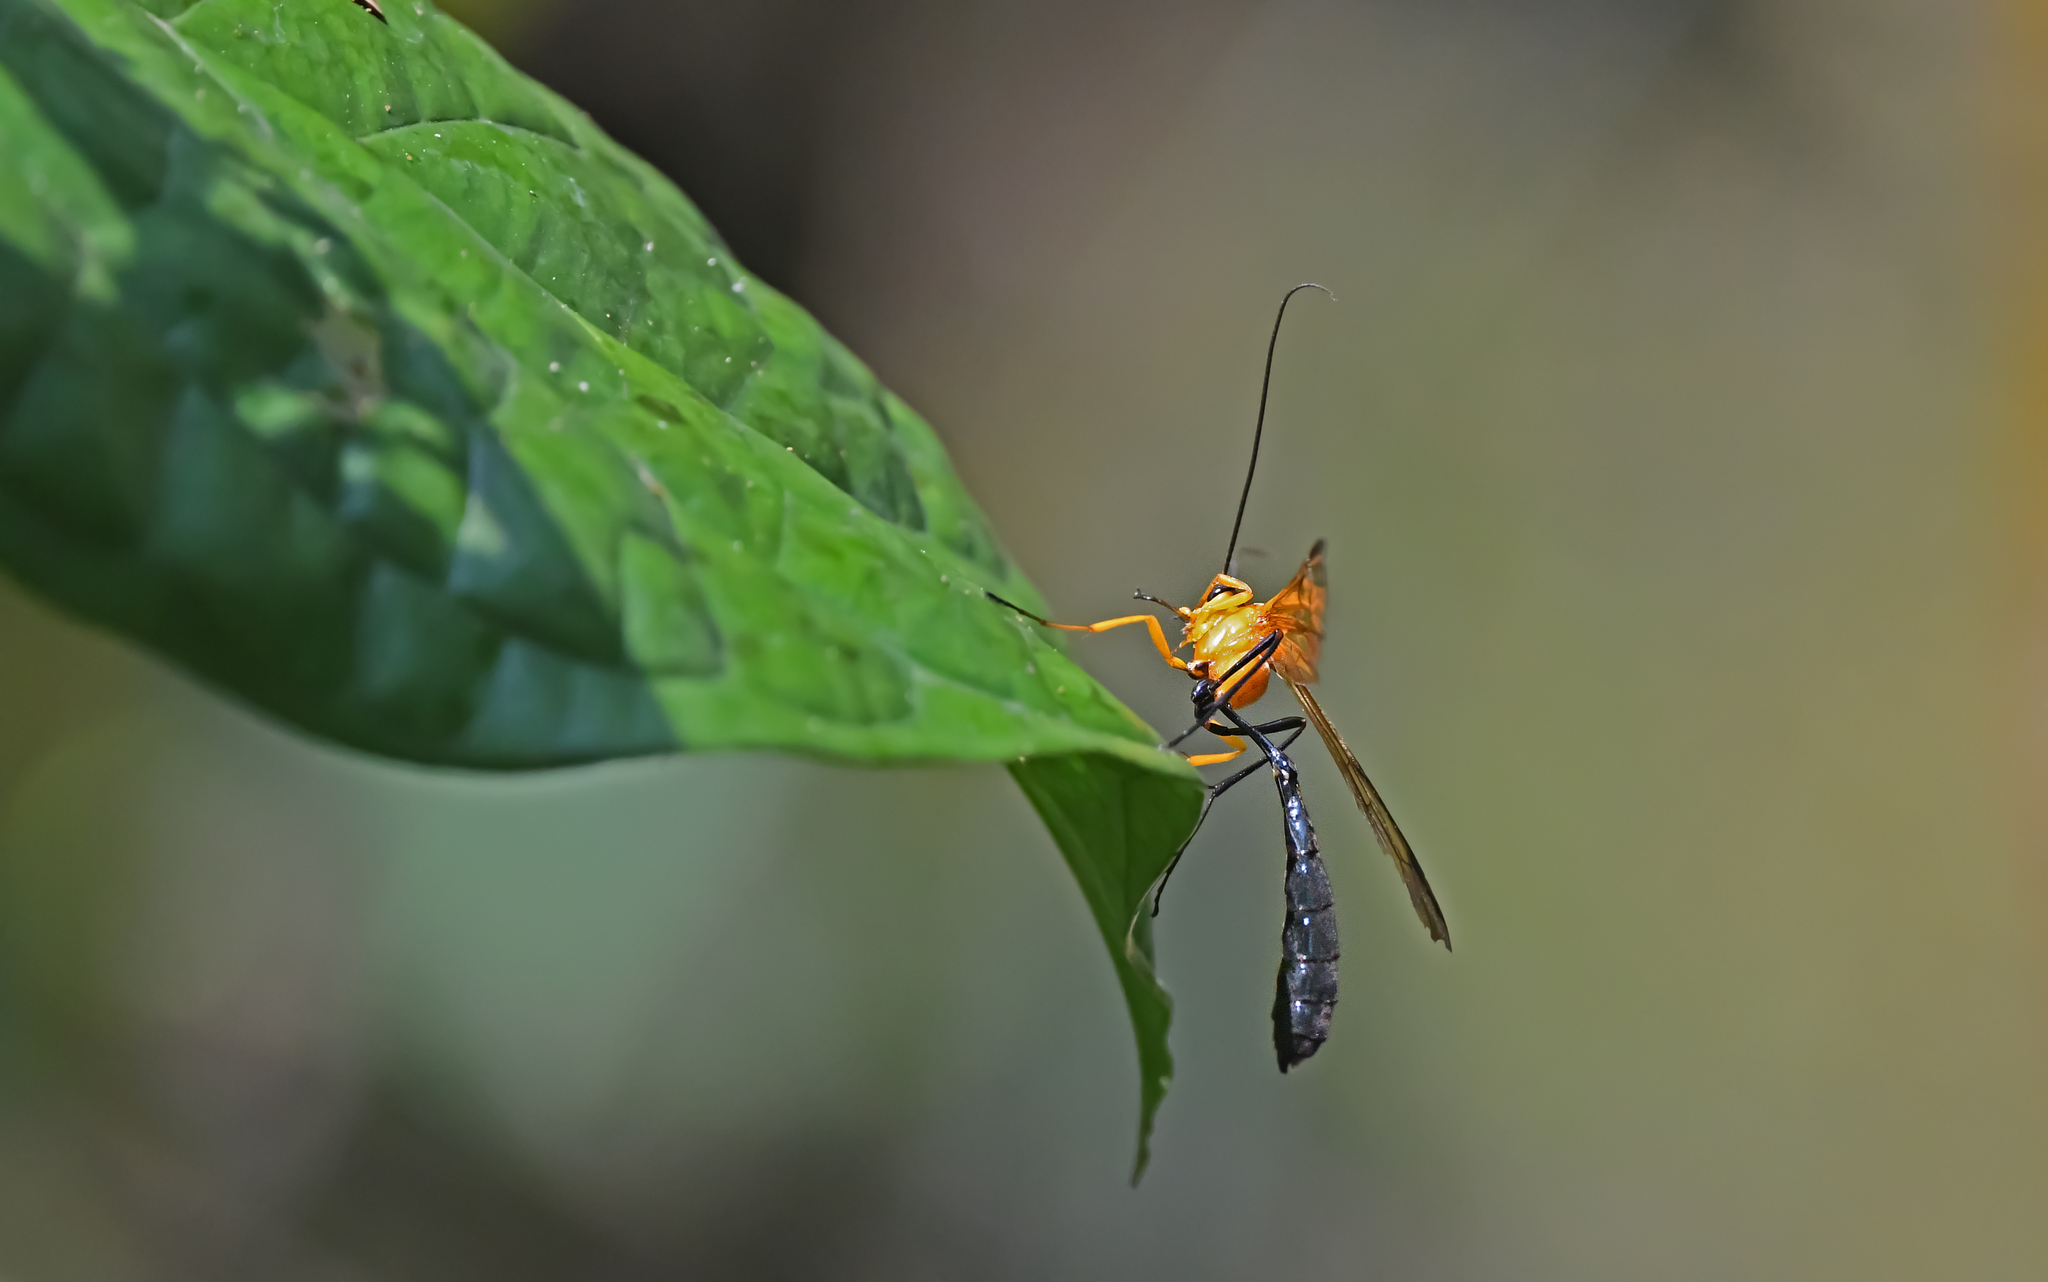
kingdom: Animalia
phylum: Arthropoda
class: Insecta
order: Hymenoptera
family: Ichneumonidae
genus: Thyreodon
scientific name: Thyreodon rufothorax
